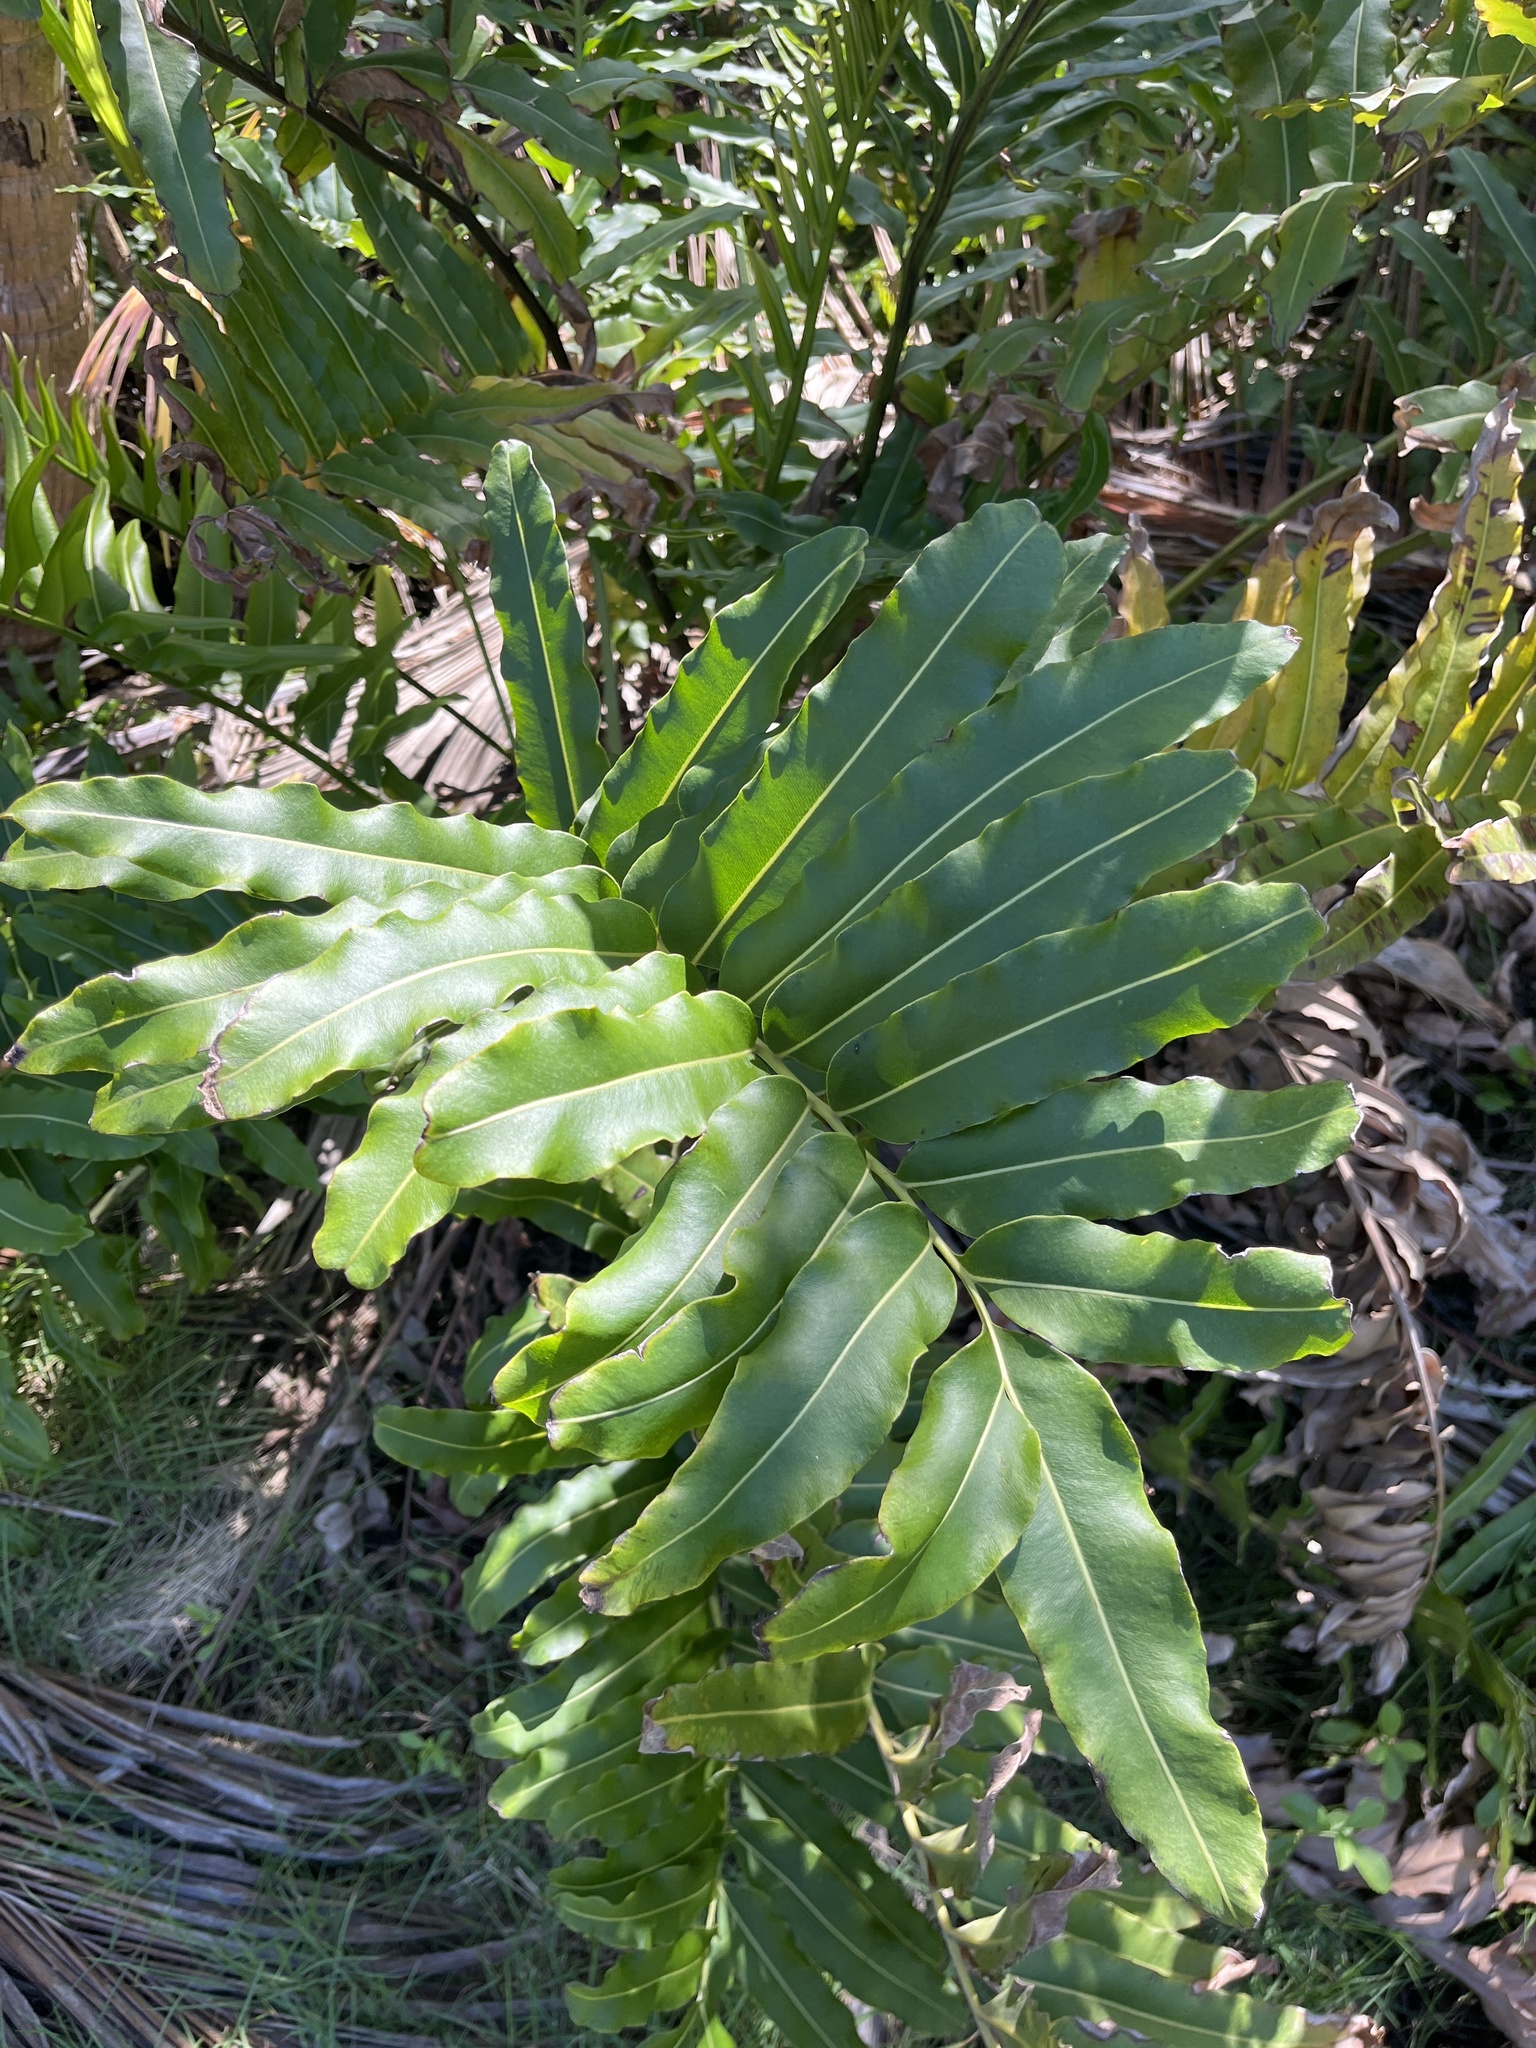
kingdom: Plantae
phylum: Tracheophyta
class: Polypodiopsida
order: Polypodiales
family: Pteridaceae
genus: Acrostichum
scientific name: Acrostichum danaeifolium
